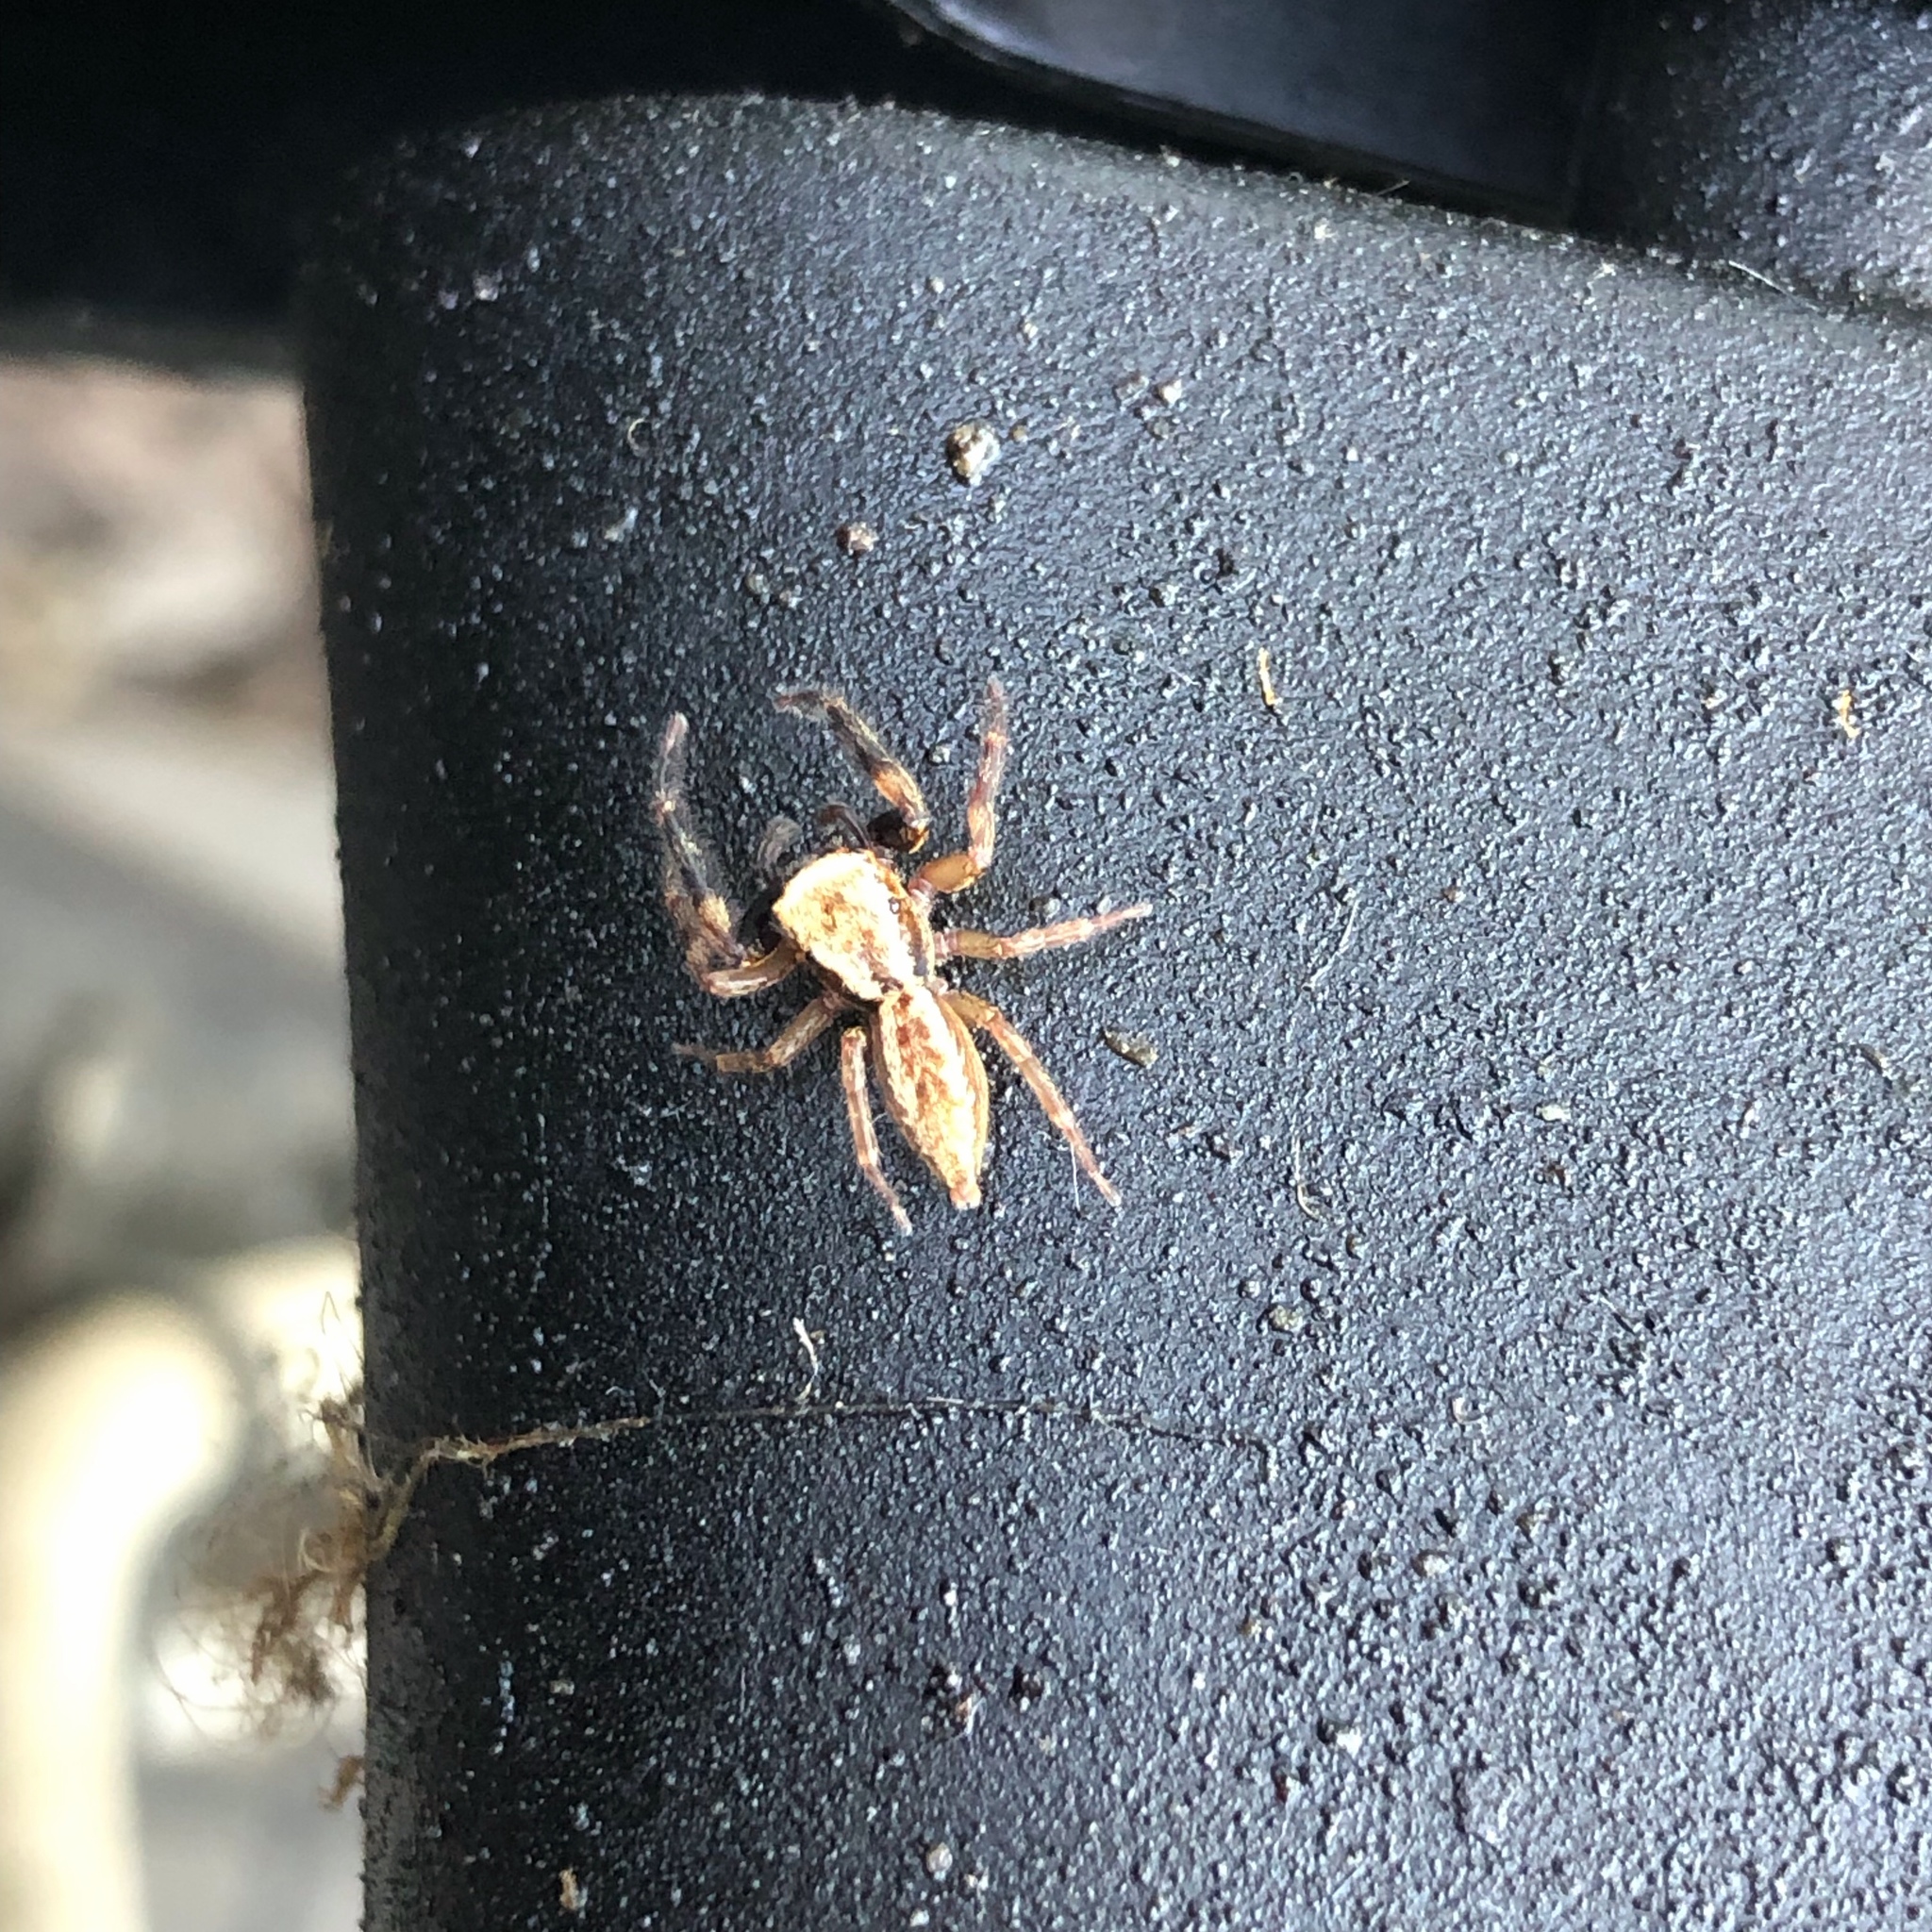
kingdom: Animalia
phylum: Arthropoda
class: Arachnida
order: Araneae
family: Salticidae
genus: Trite
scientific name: Trite auricoma
